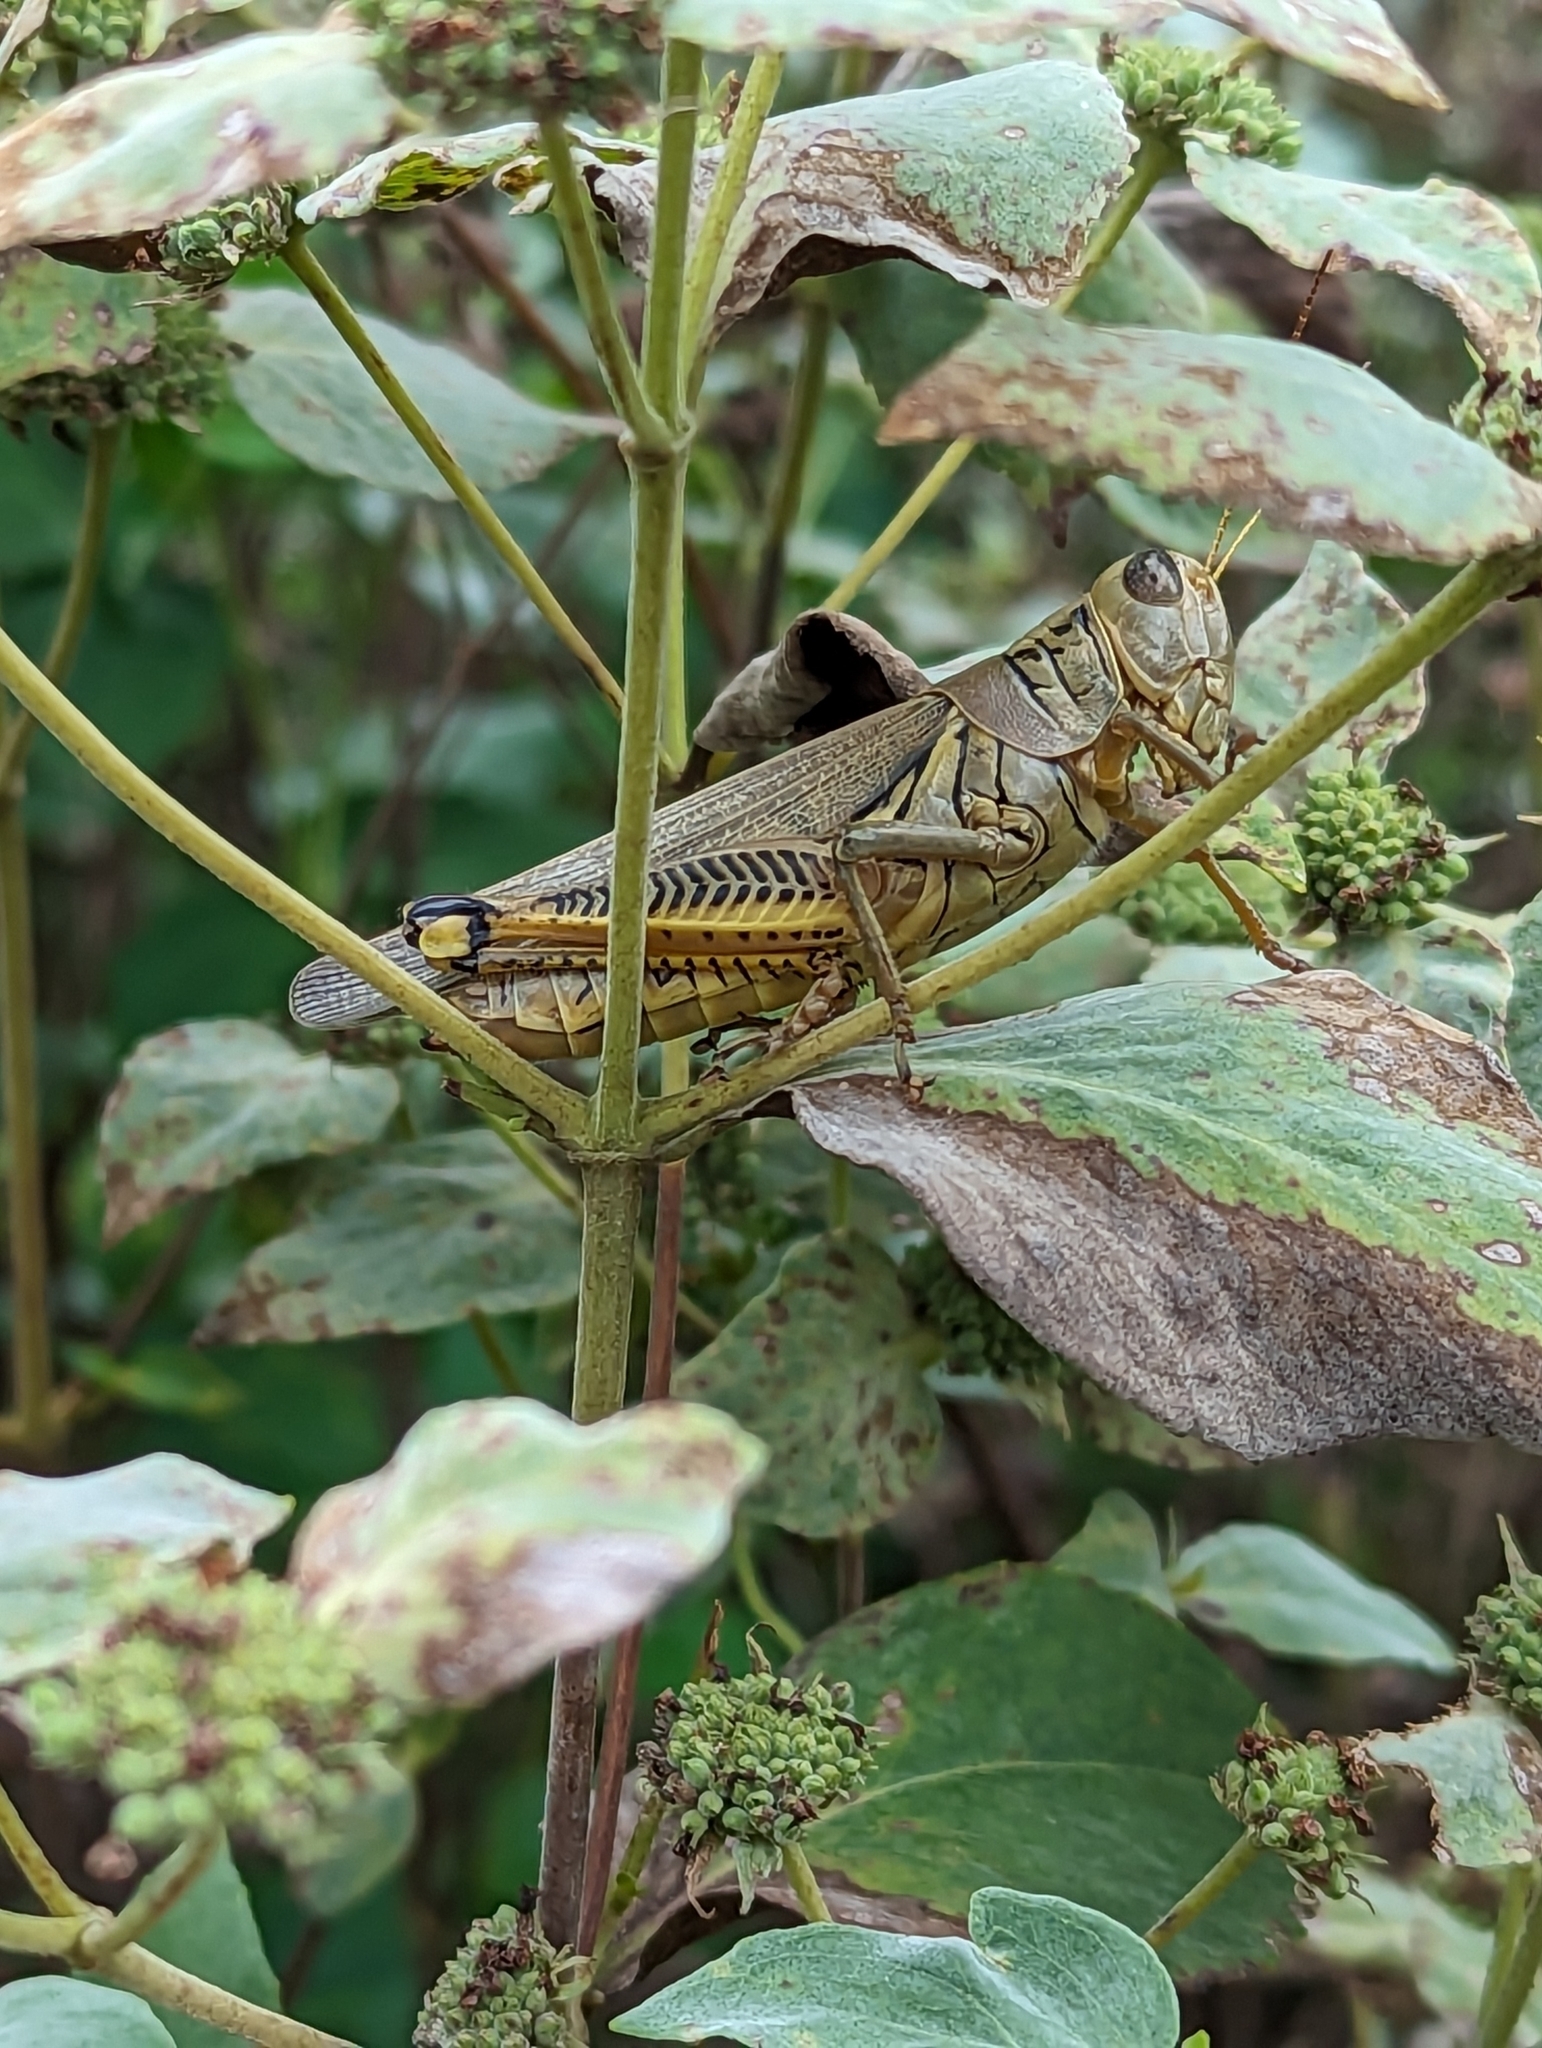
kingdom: Animalia
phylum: Arthropoda
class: Insecta
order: Orthoptera
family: Acrididae
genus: Melanoplus
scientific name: Melanoplus differentialis
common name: Differential grasshopper
